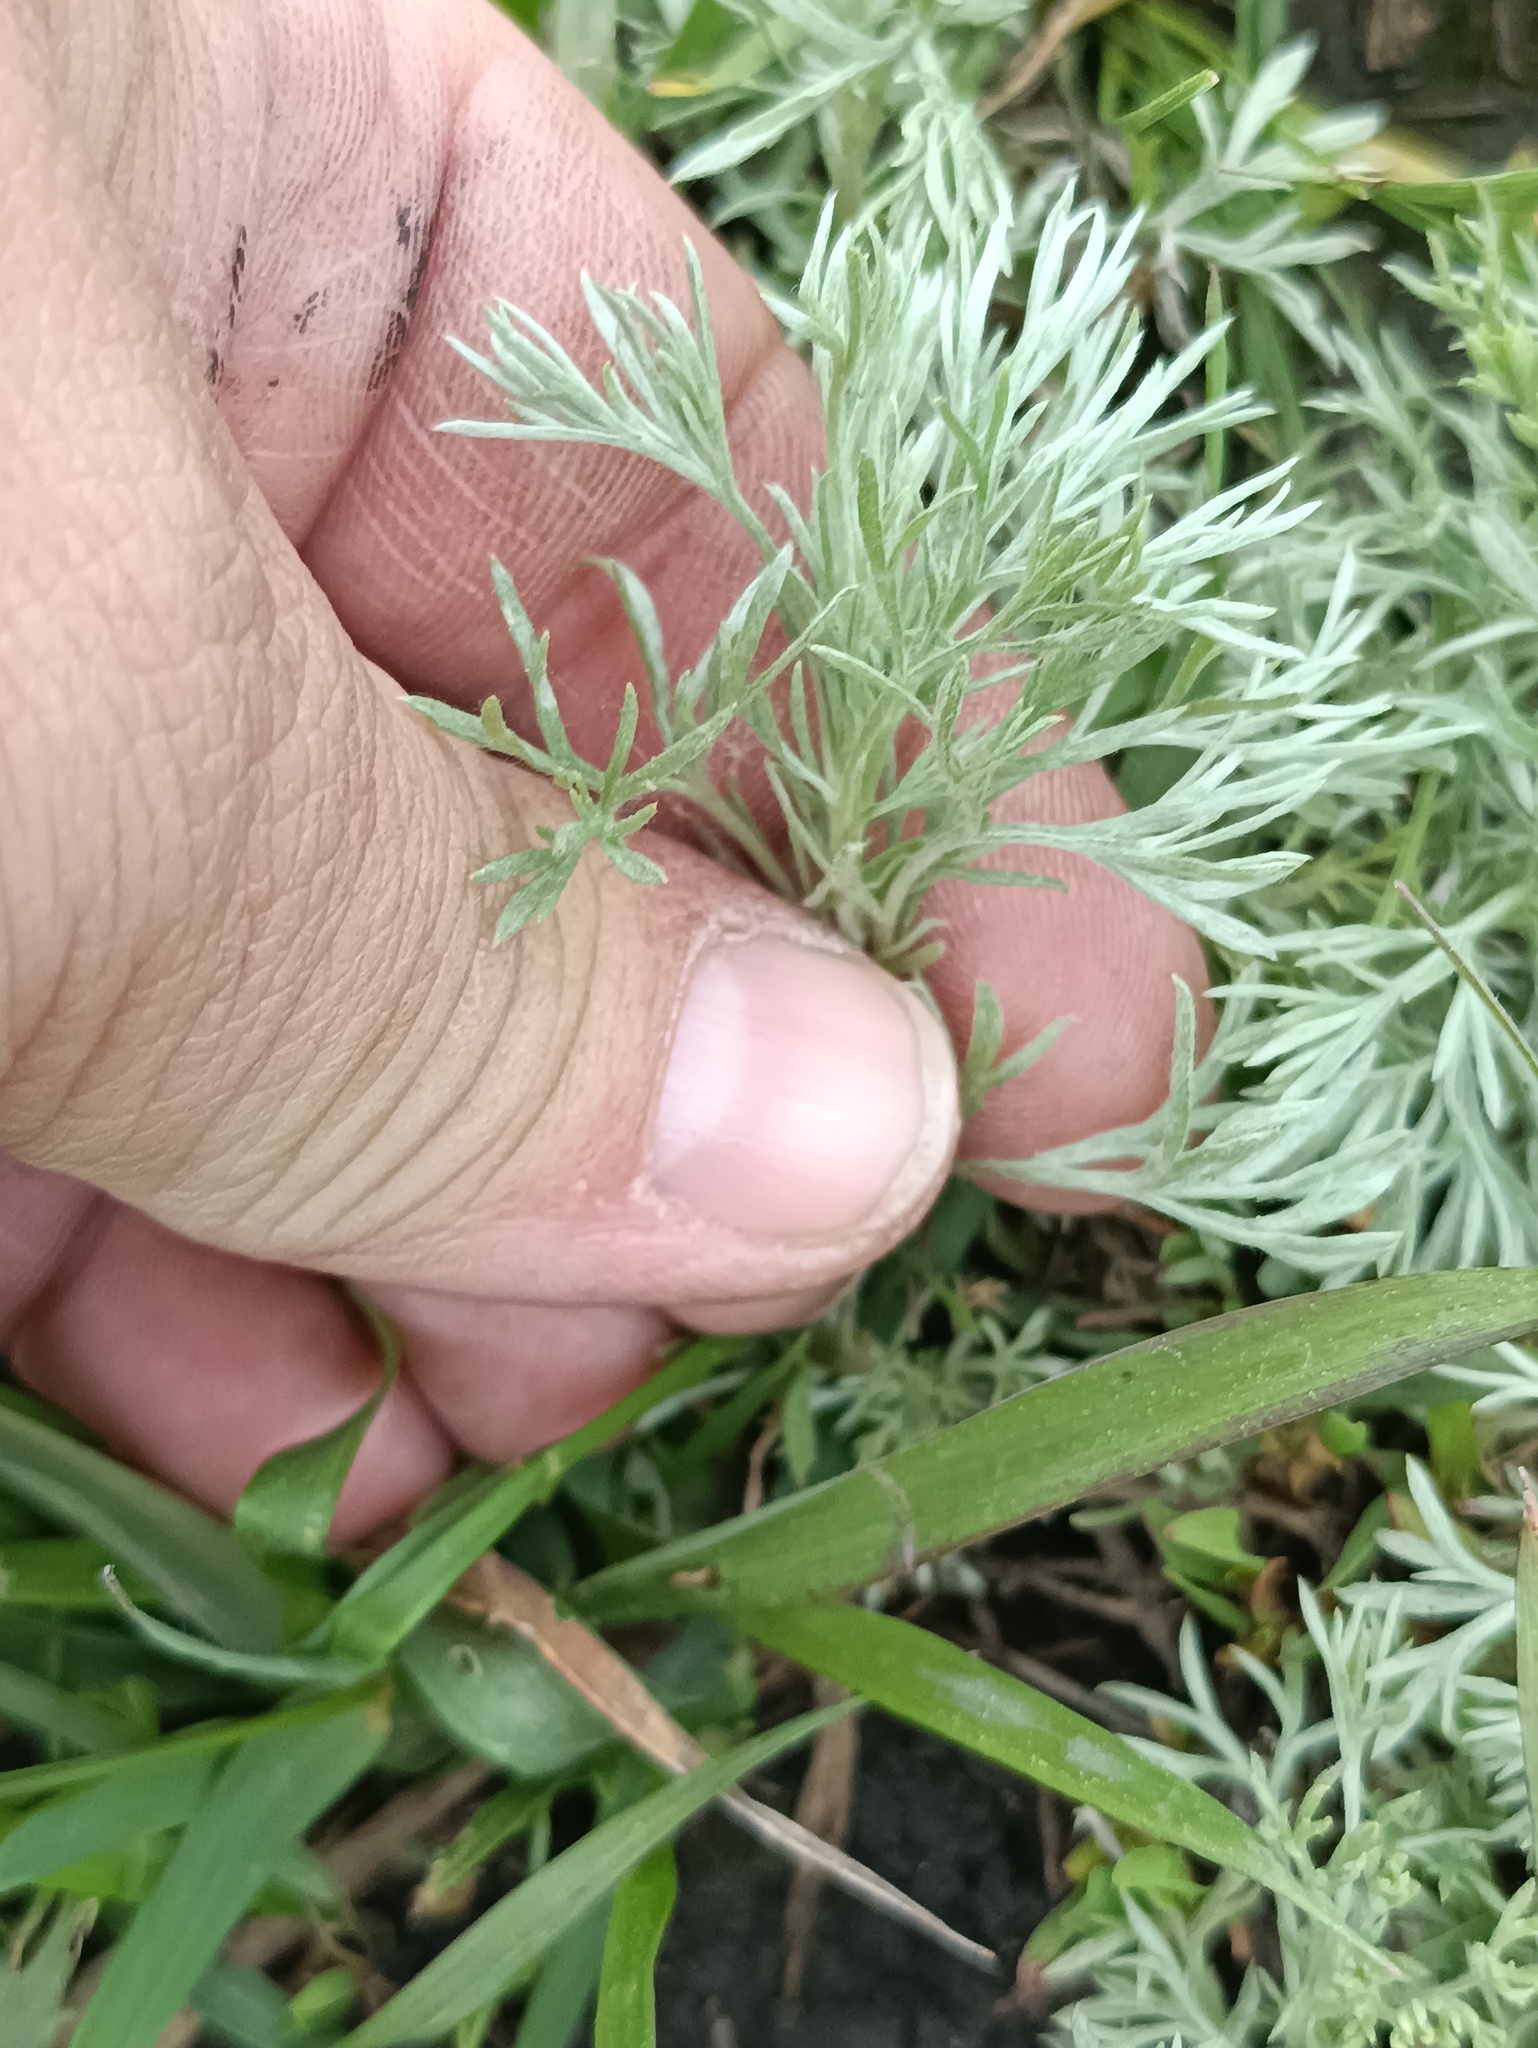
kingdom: Plantae
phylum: Tracheophyta
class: Magnoliopsida
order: Asterales
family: Asteraceae
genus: Artemisia
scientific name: Artemisia austriaca
